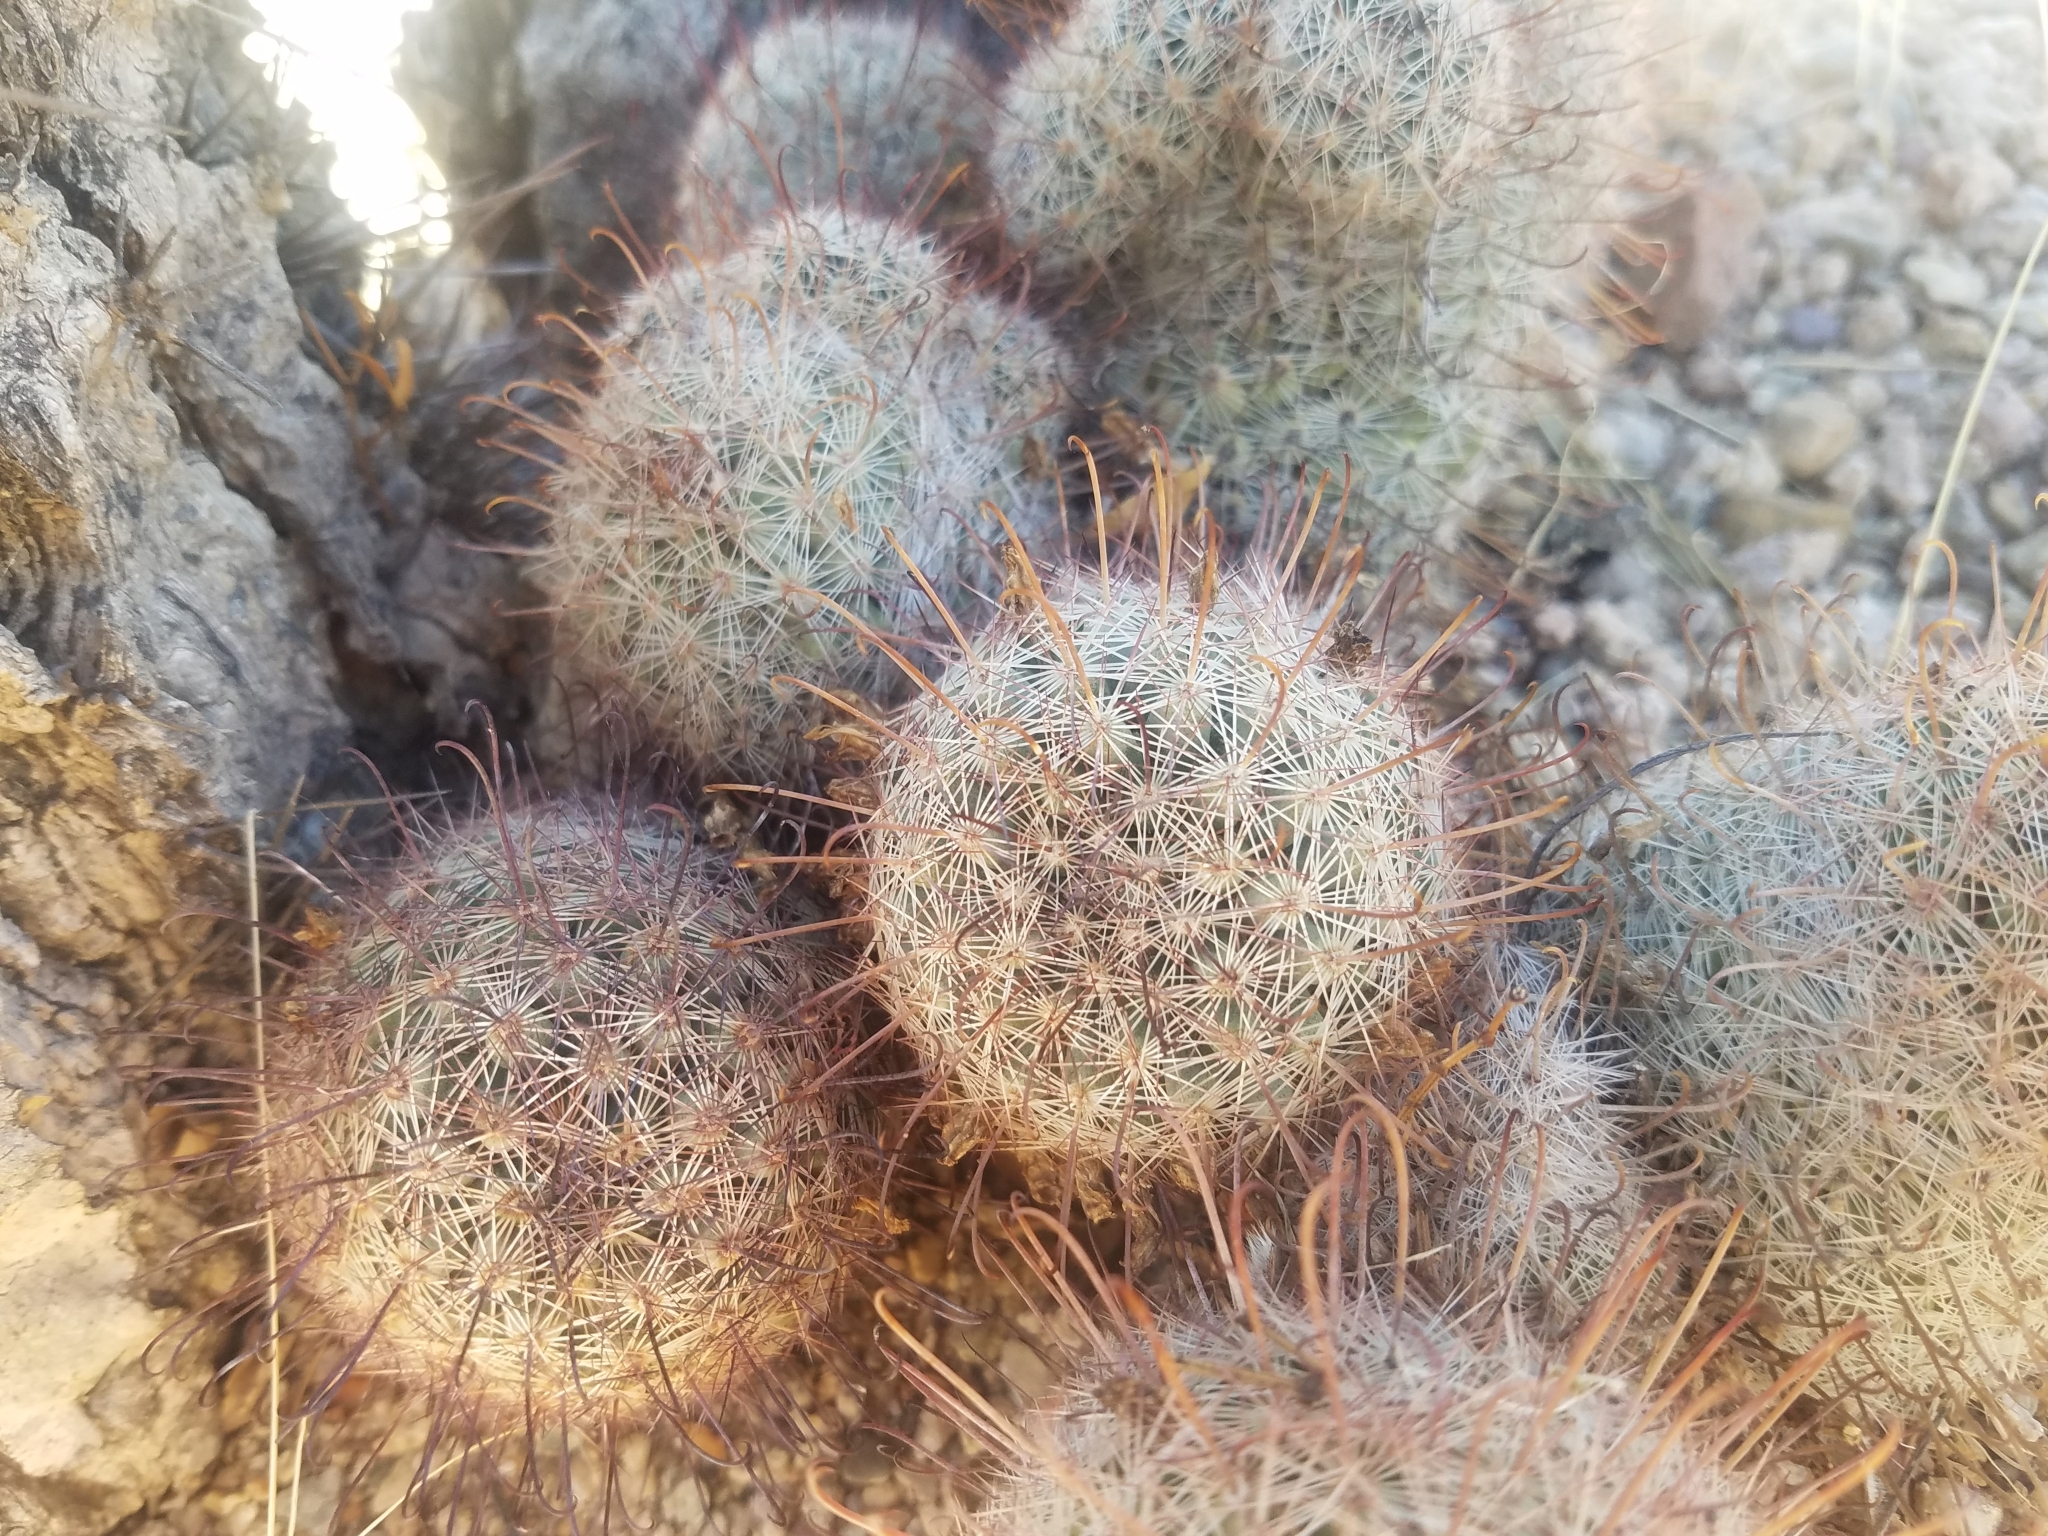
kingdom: Plantae
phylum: Tracheophyta
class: Magnoliopsida
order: Caryophyllales
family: Cactaceae
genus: Cochemiea
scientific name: Cochemiea grahamii
